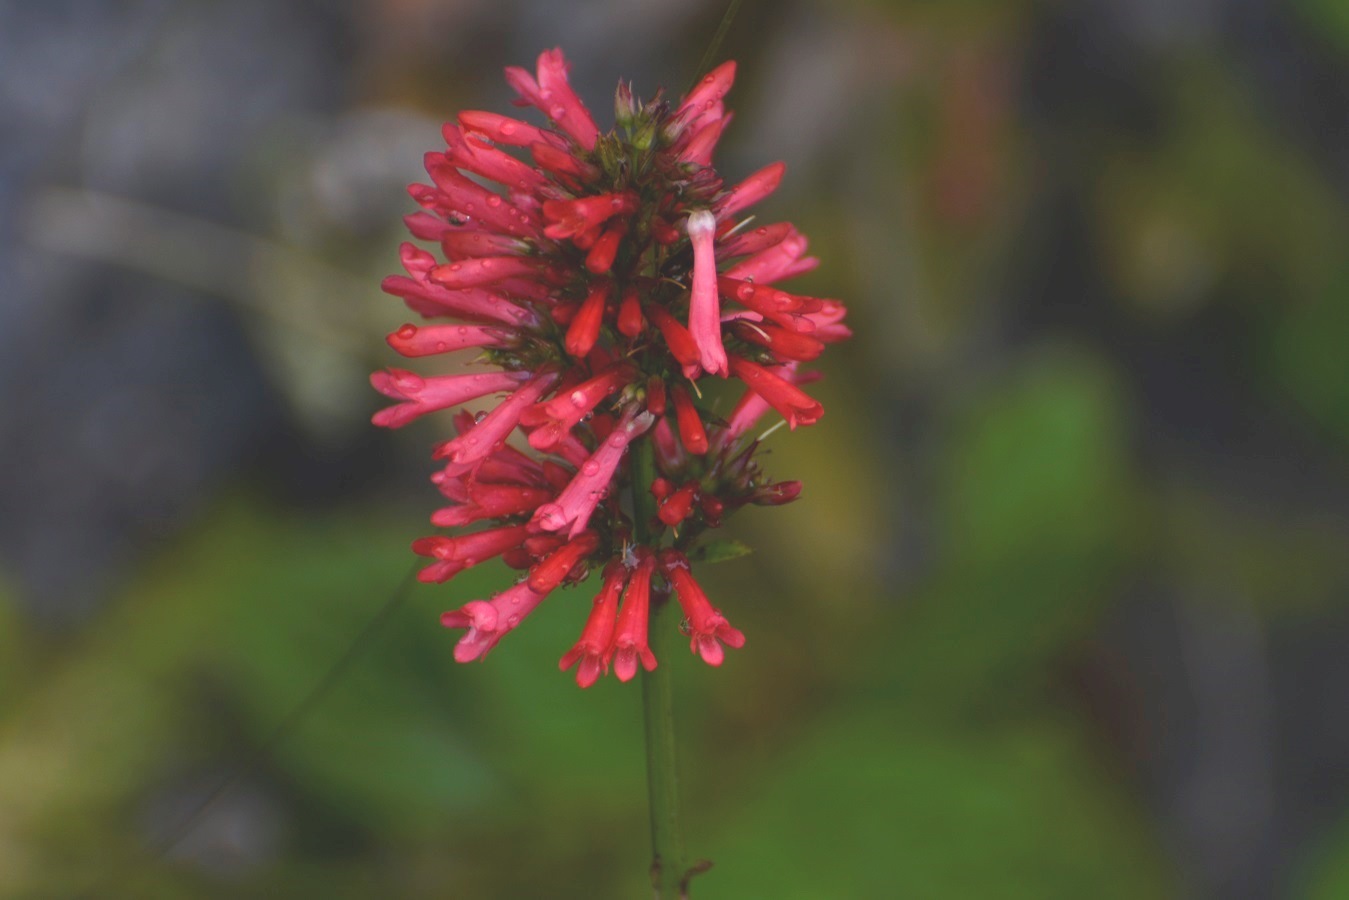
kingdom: Plantae
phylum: Tracheophyta
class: Magnoliopsida
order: Lamiales
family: Plantaginaceae
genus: Russelia
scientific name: Russelia verticillata
